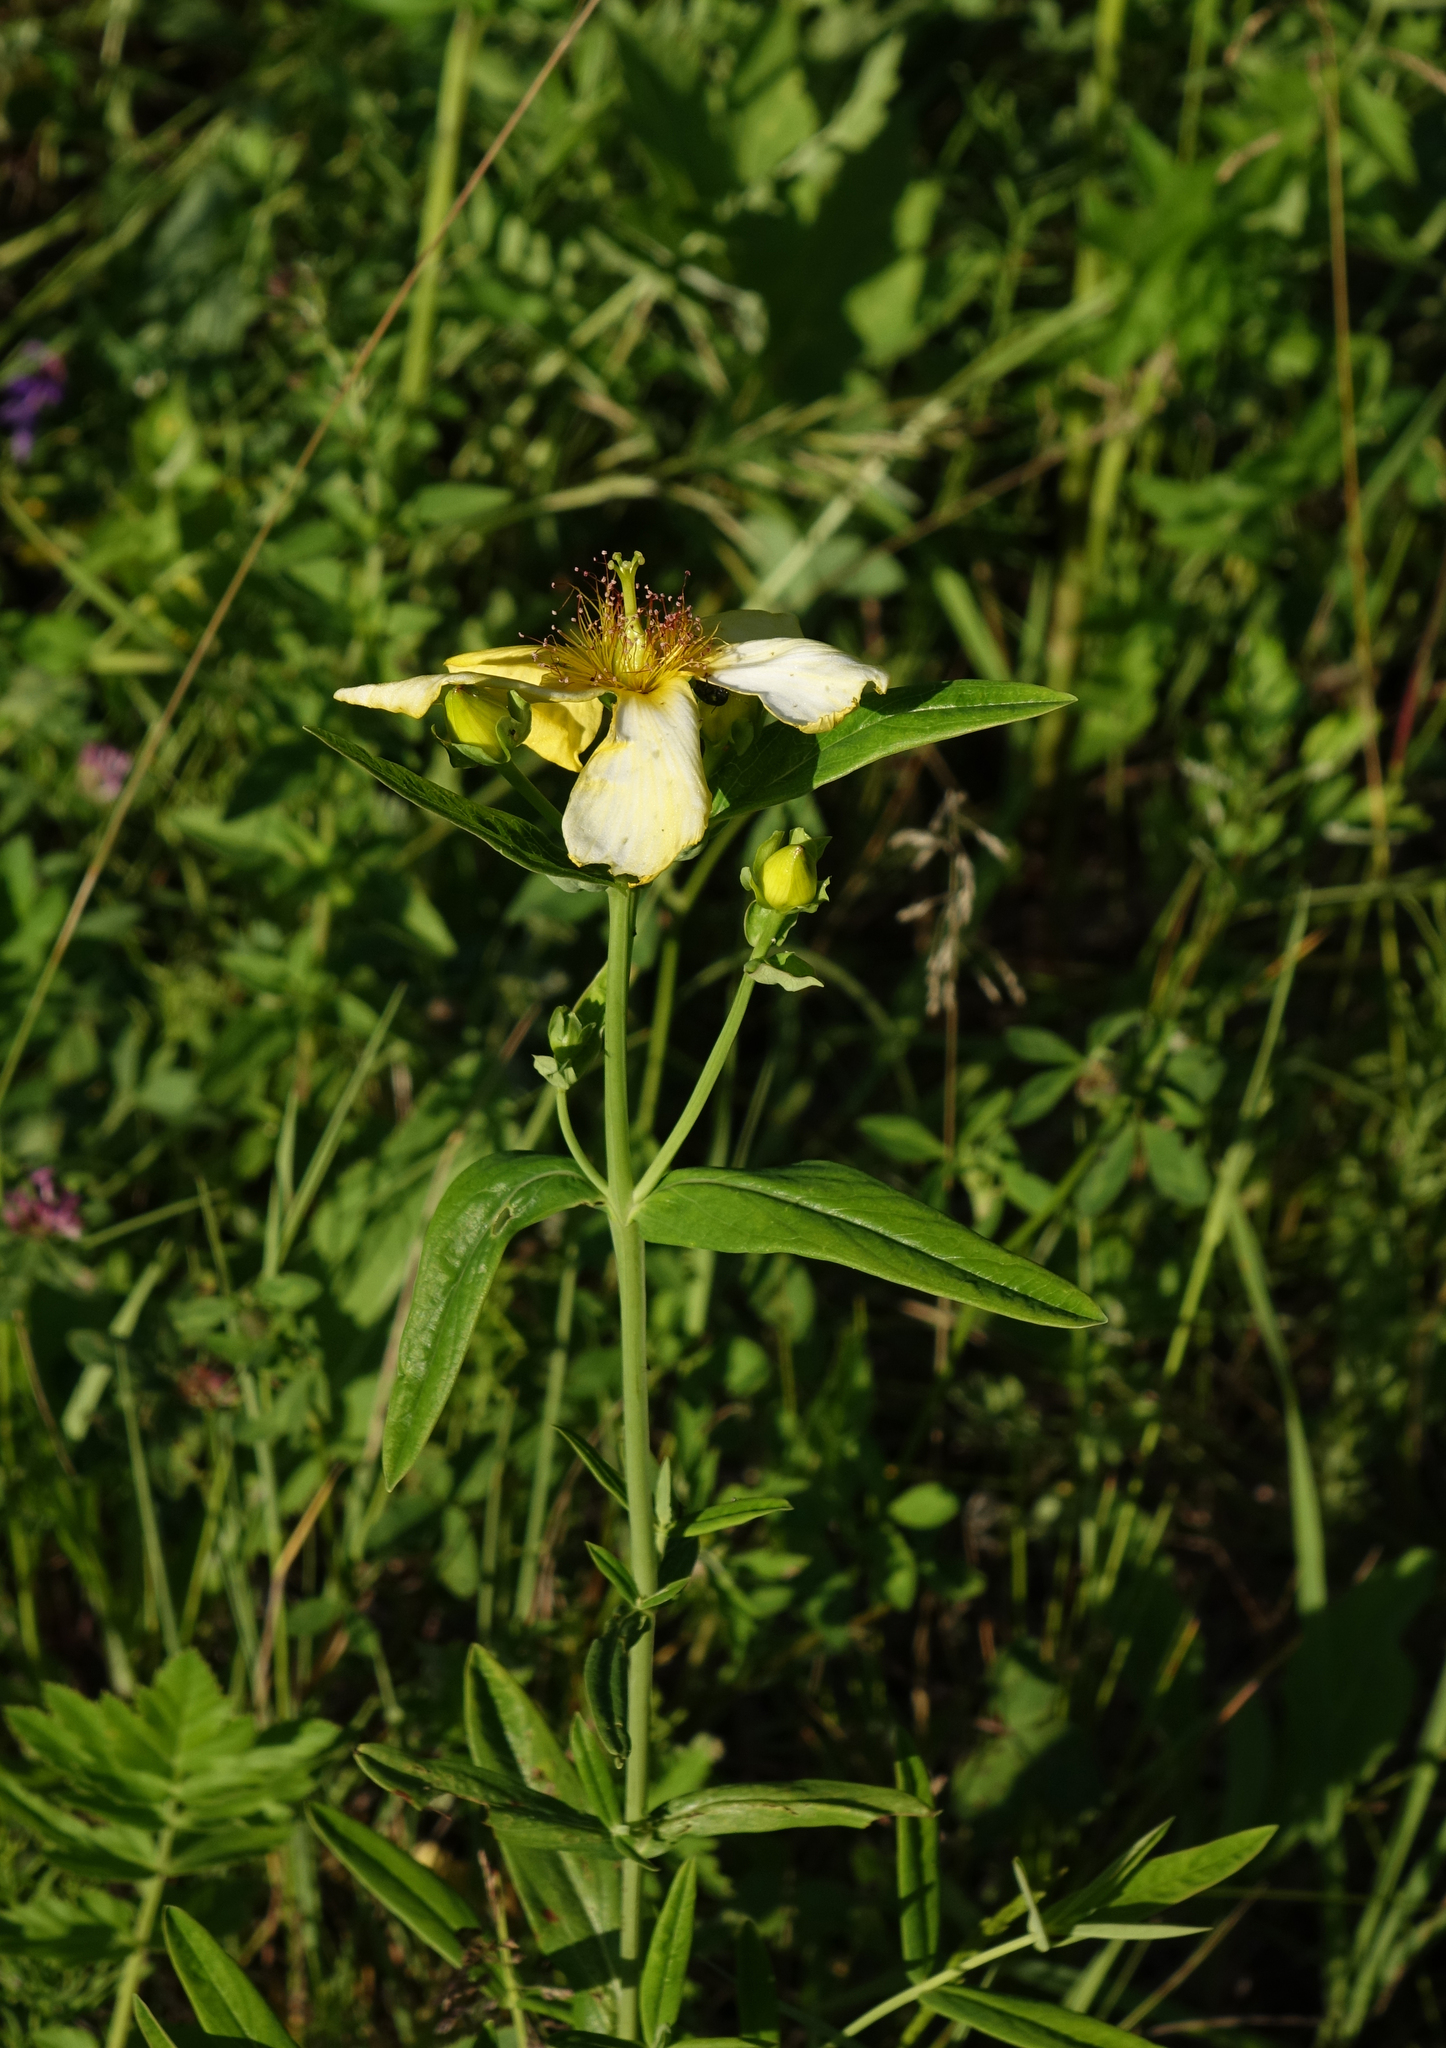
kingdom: Plantae
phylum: Tracheophyta
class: Magnoliopsida
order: Malpighiales
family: Hypericaceae
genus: Hypericum
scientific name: Hypericum ascyron
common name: Giant st. john's-wort
